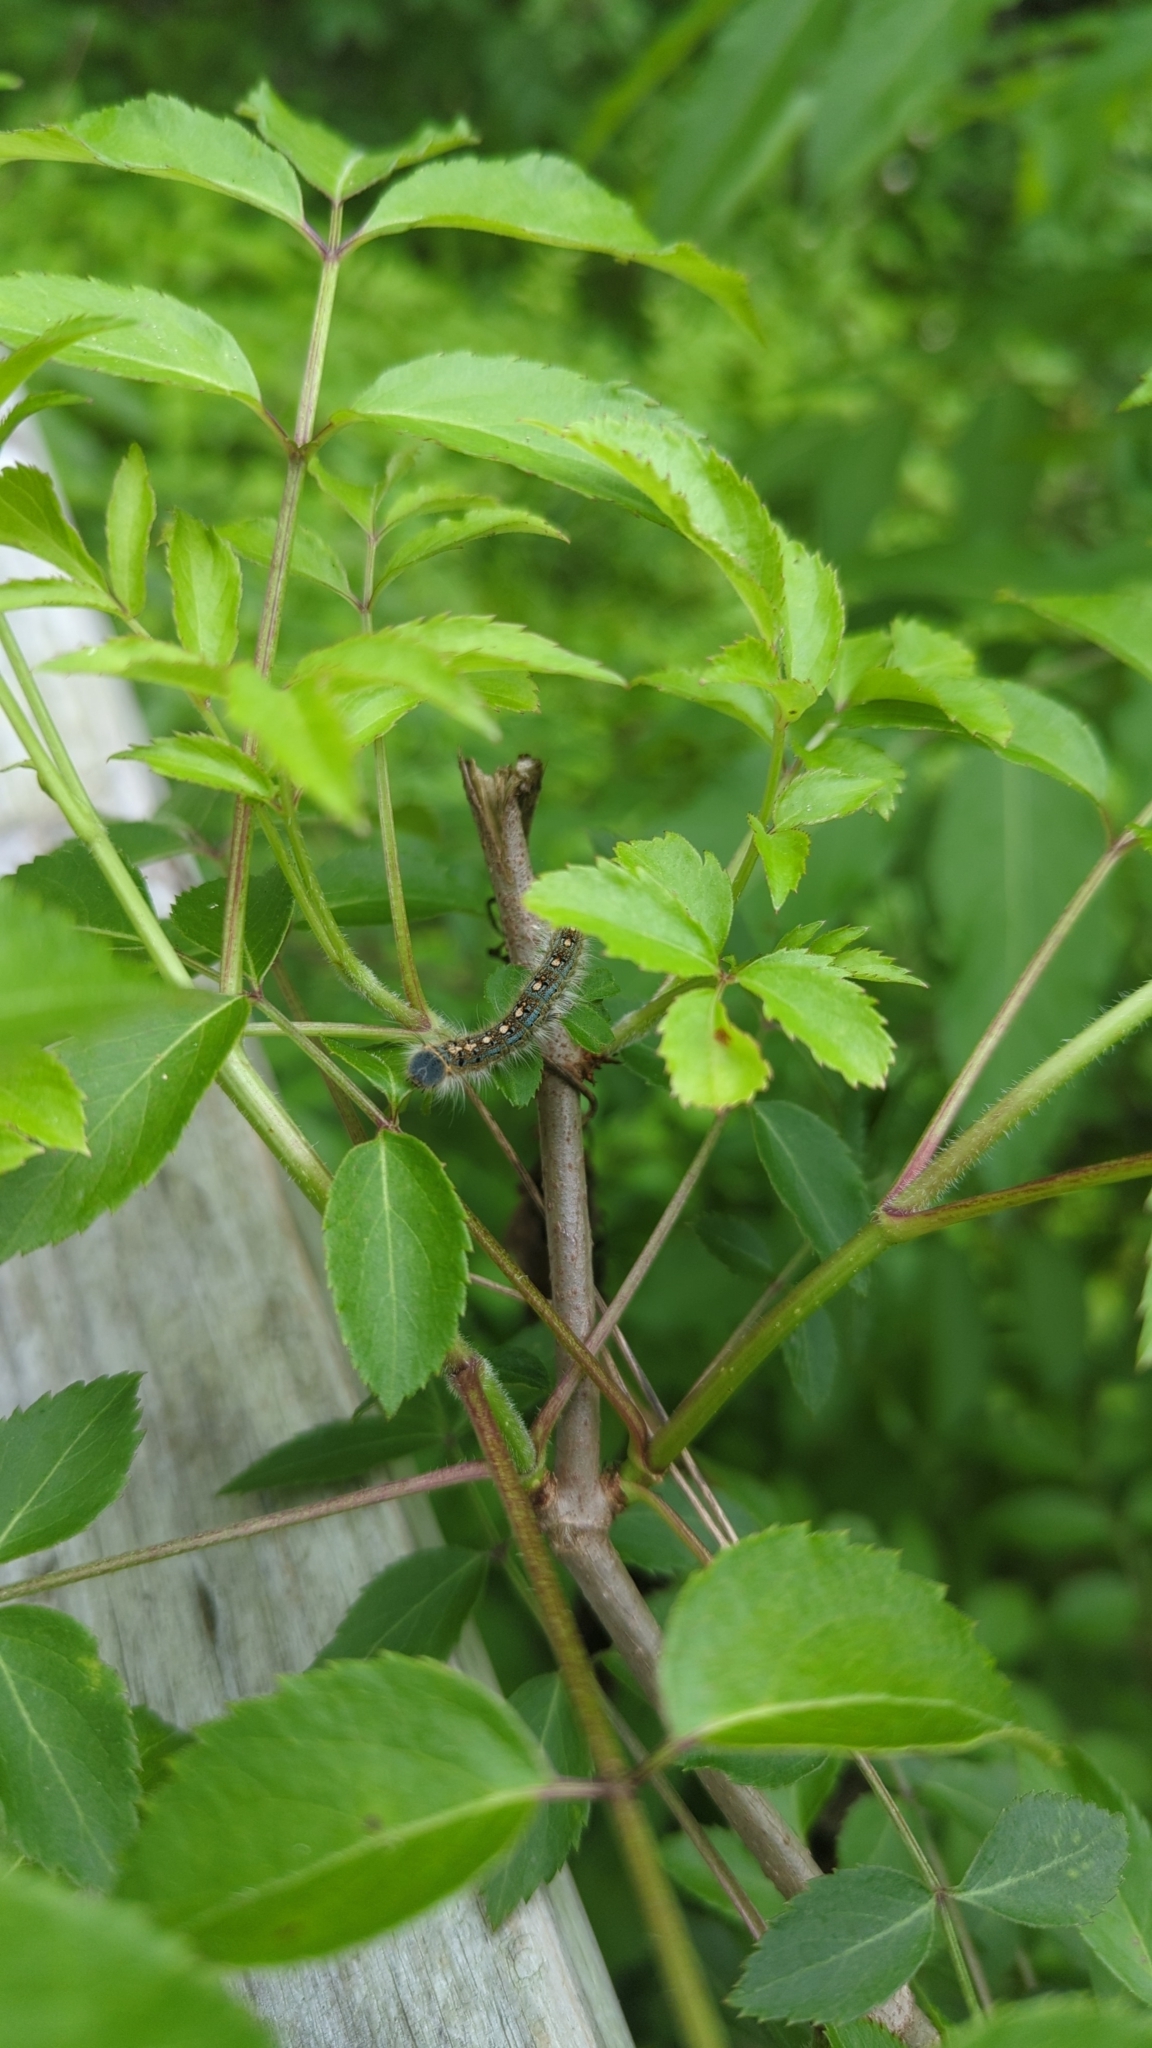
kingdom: Animalia
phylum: Arthropoda
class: Insecta
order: Lepidoptera
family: Lasiocampidae
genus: Malacosoma
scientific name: Malacosoma disstria
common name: Forest tent caterpillar
